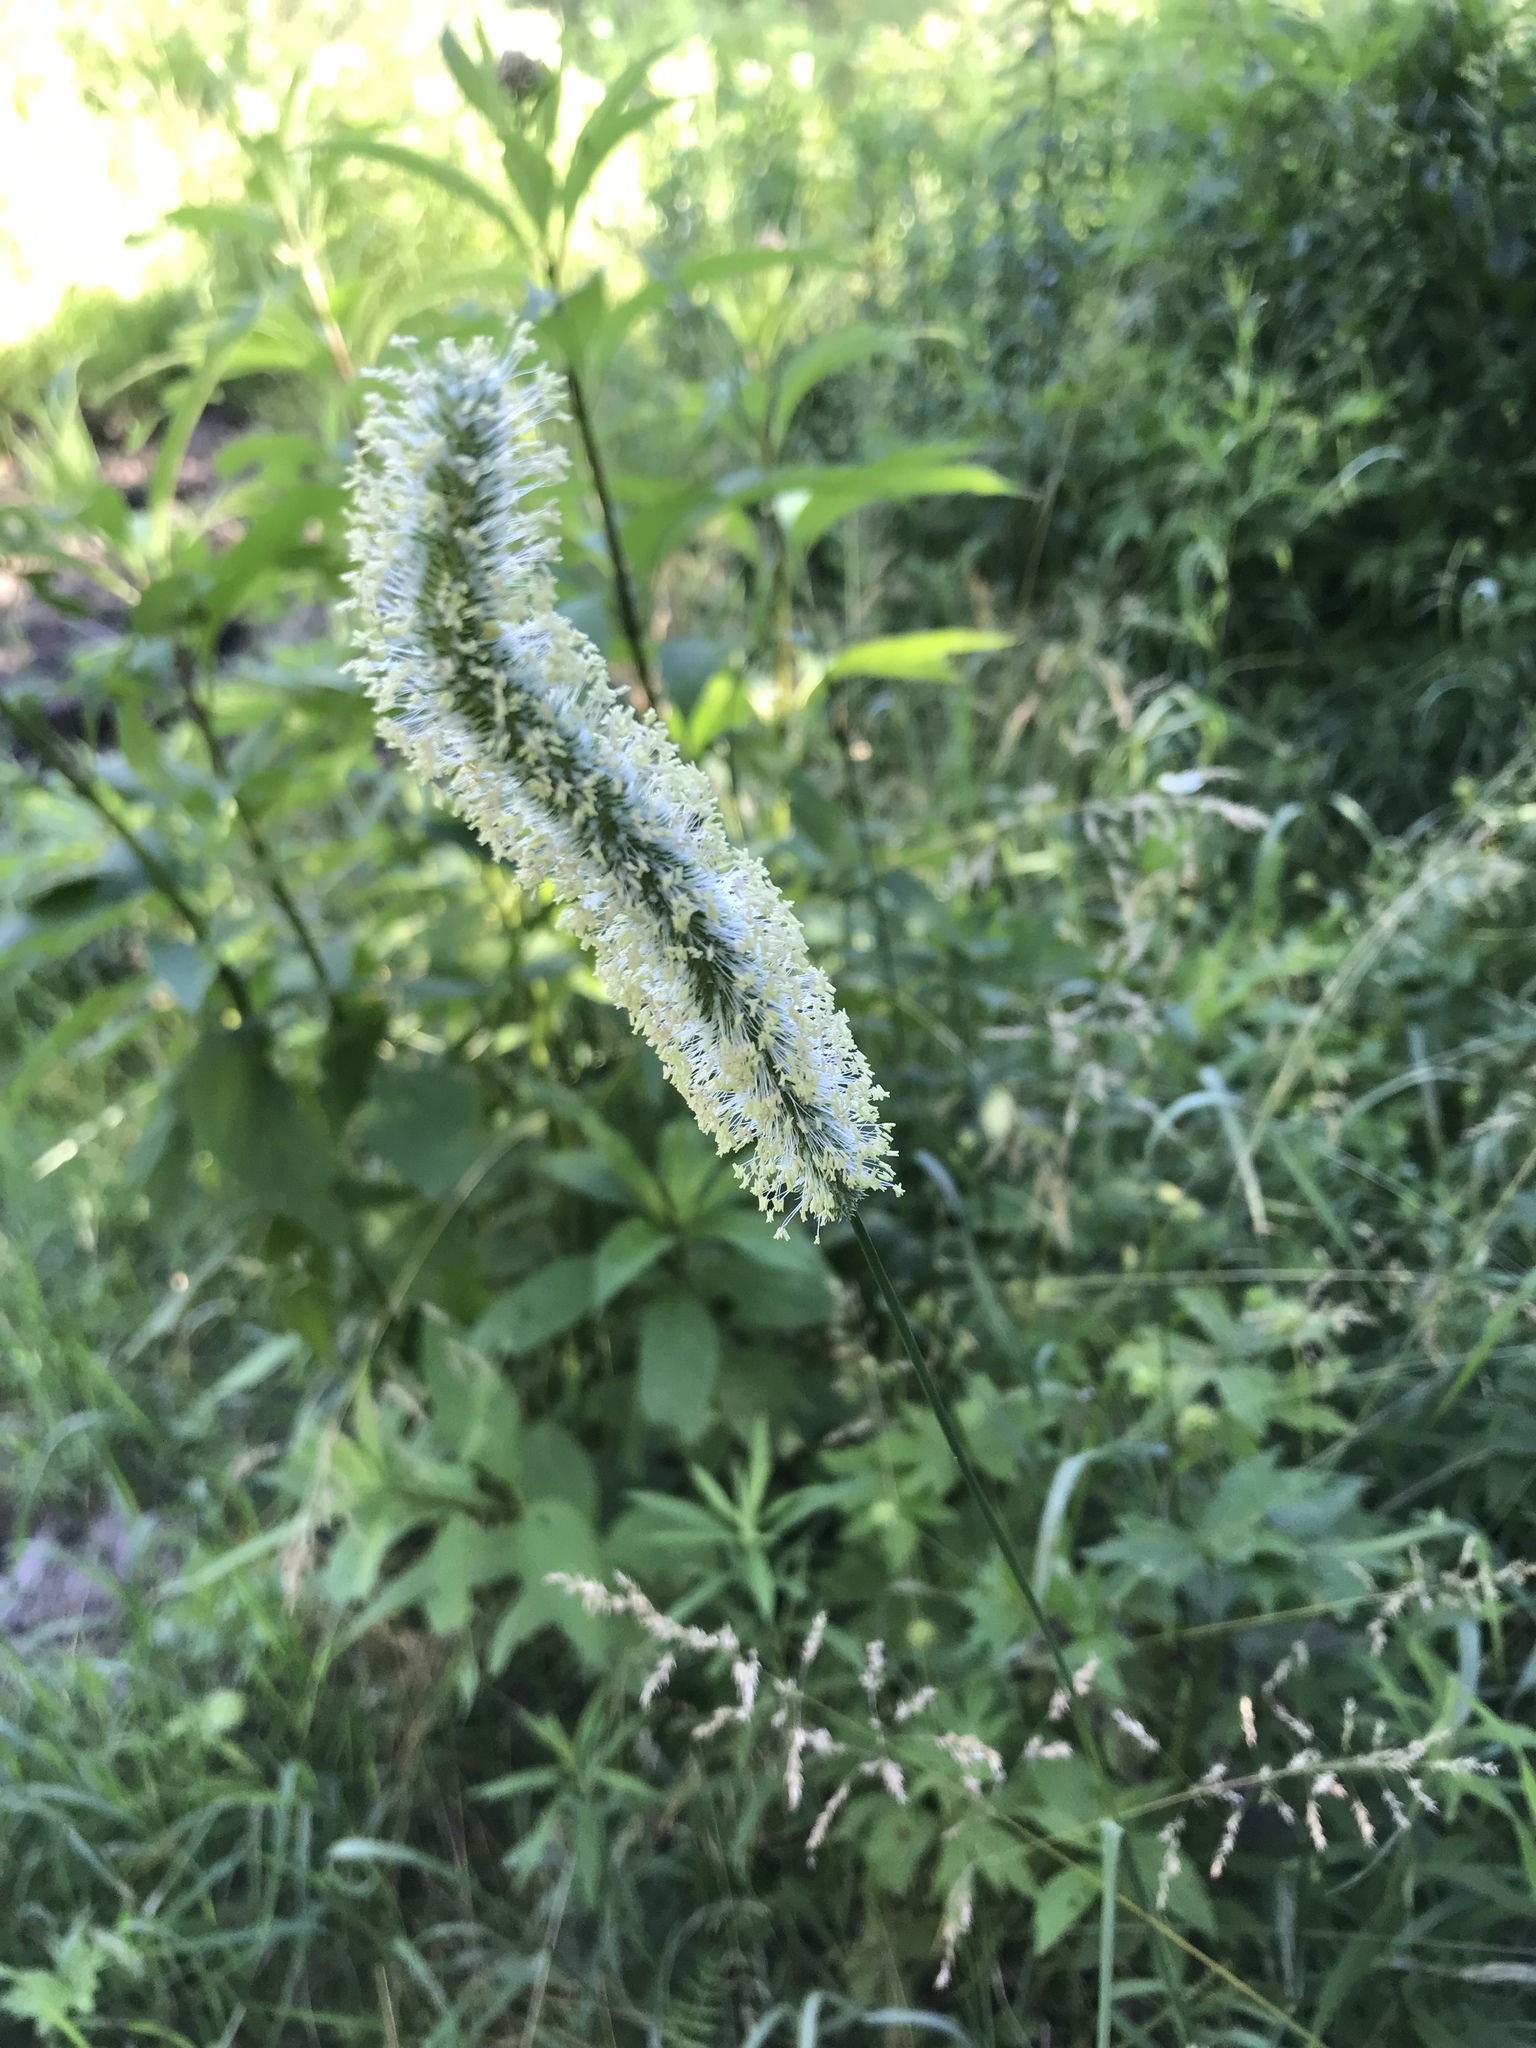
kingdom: Plantae
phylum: Tracheophyta
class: Liliopsida
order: Poales
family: Poaceae
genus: Phleum
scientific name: Phleum pratense
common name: Timothy grass
